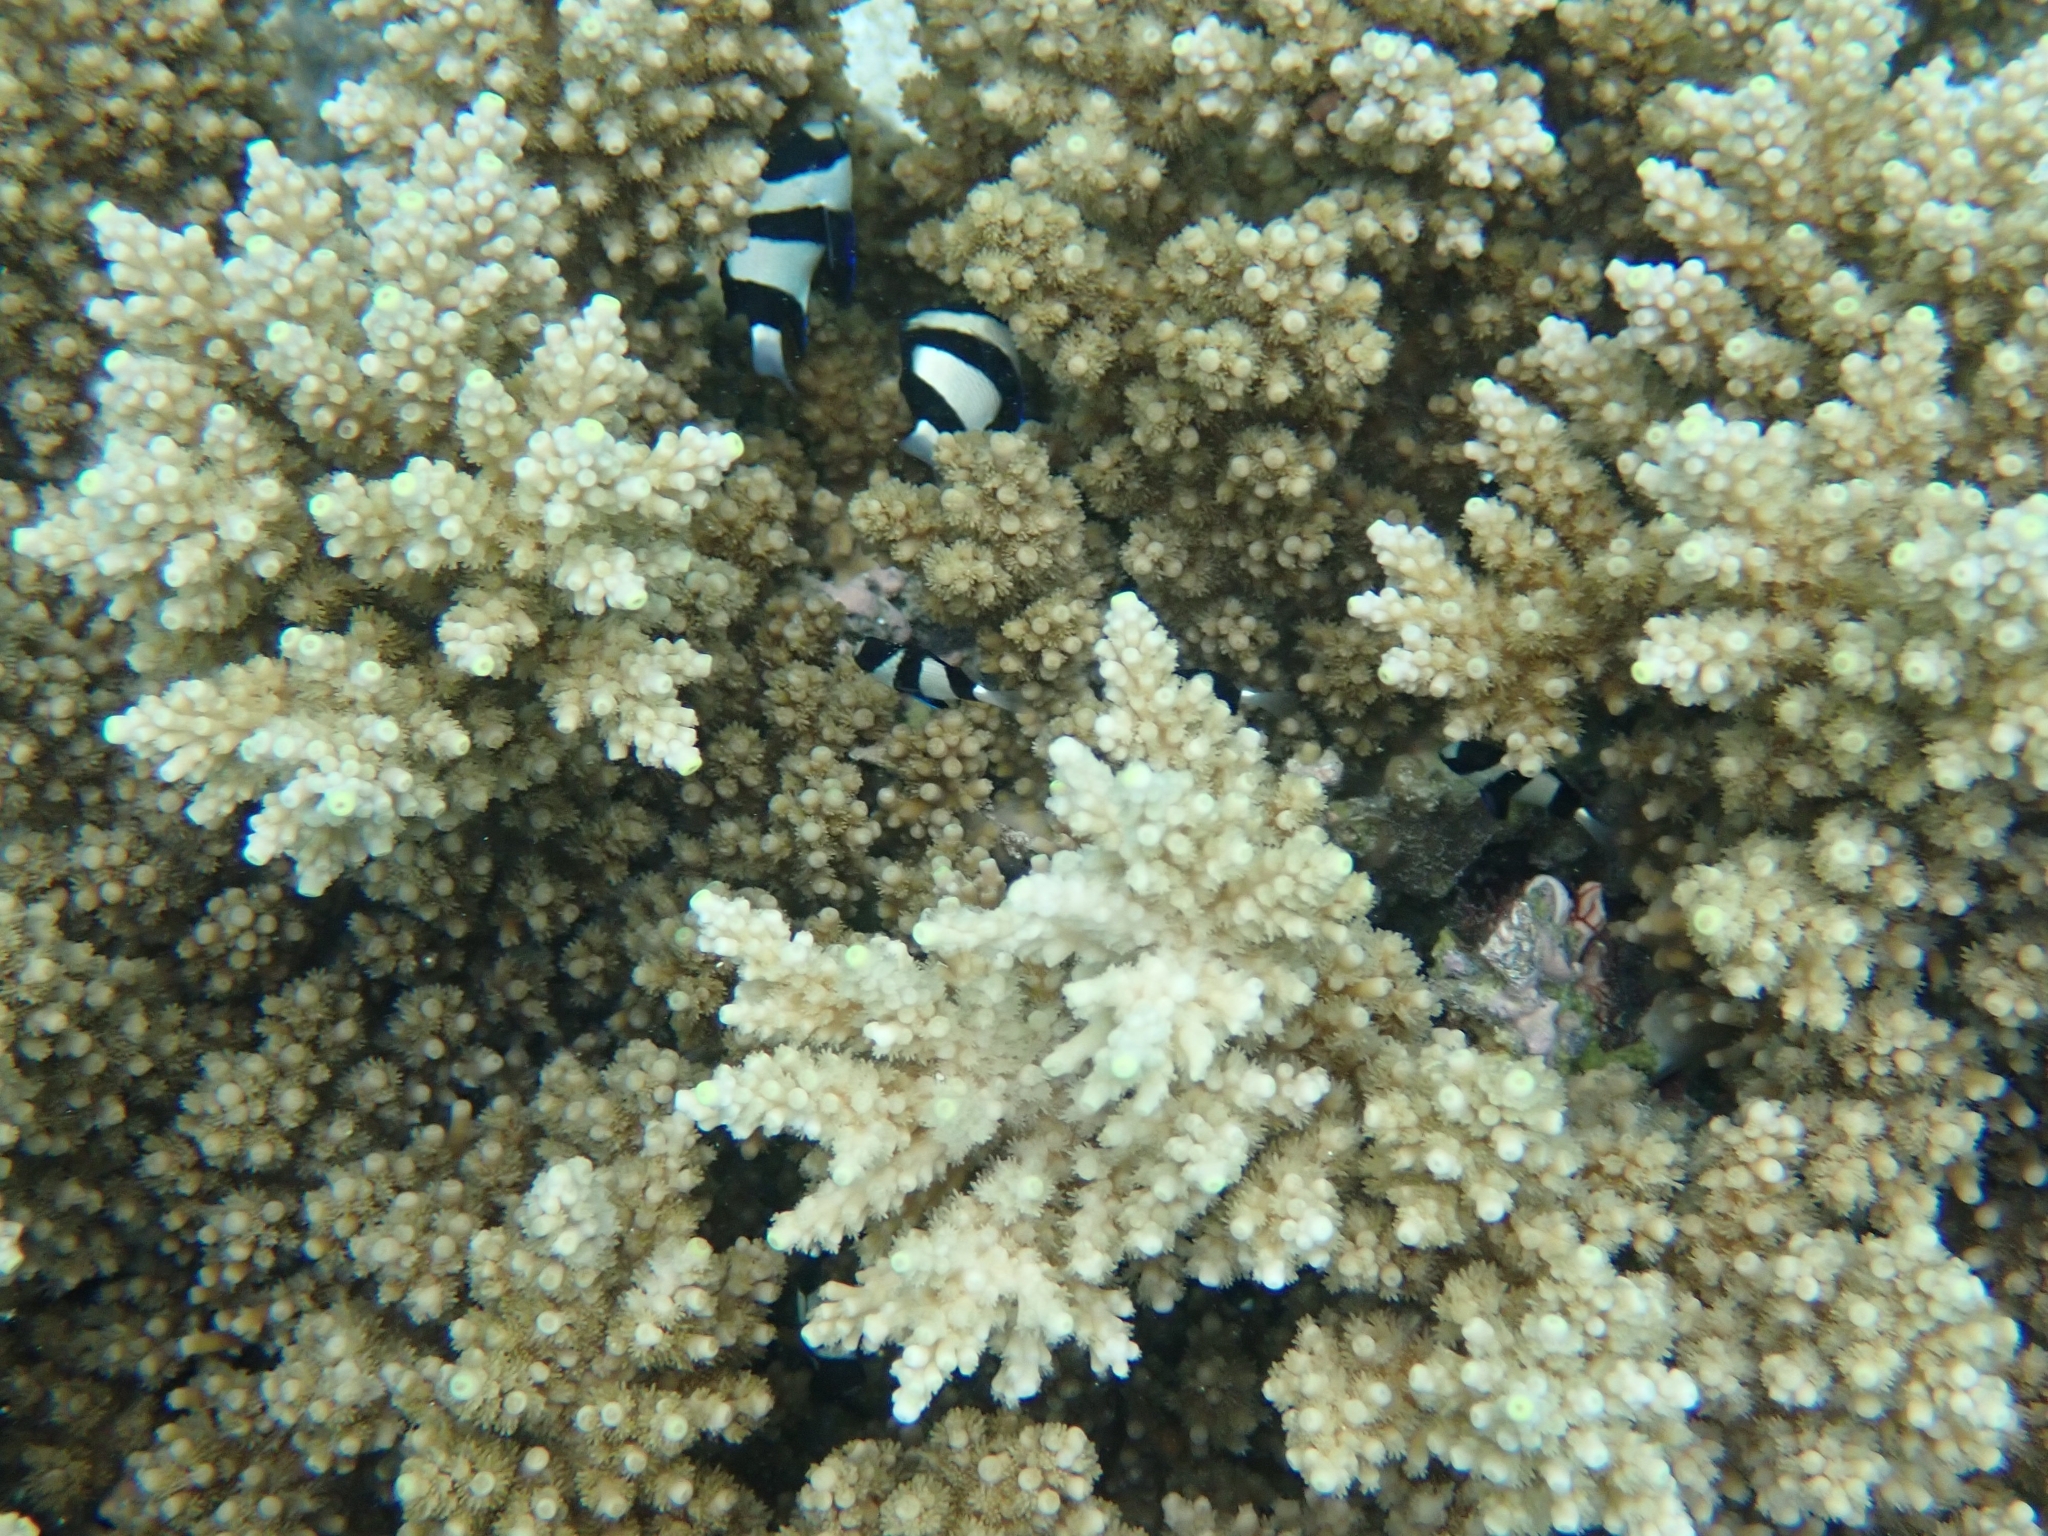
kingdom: Animalia
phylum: Chordata
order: Perciformes
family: Pomacentridae
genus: Dascyllus
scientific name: Dascyllus aruanus
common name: Humbug dascyllus
